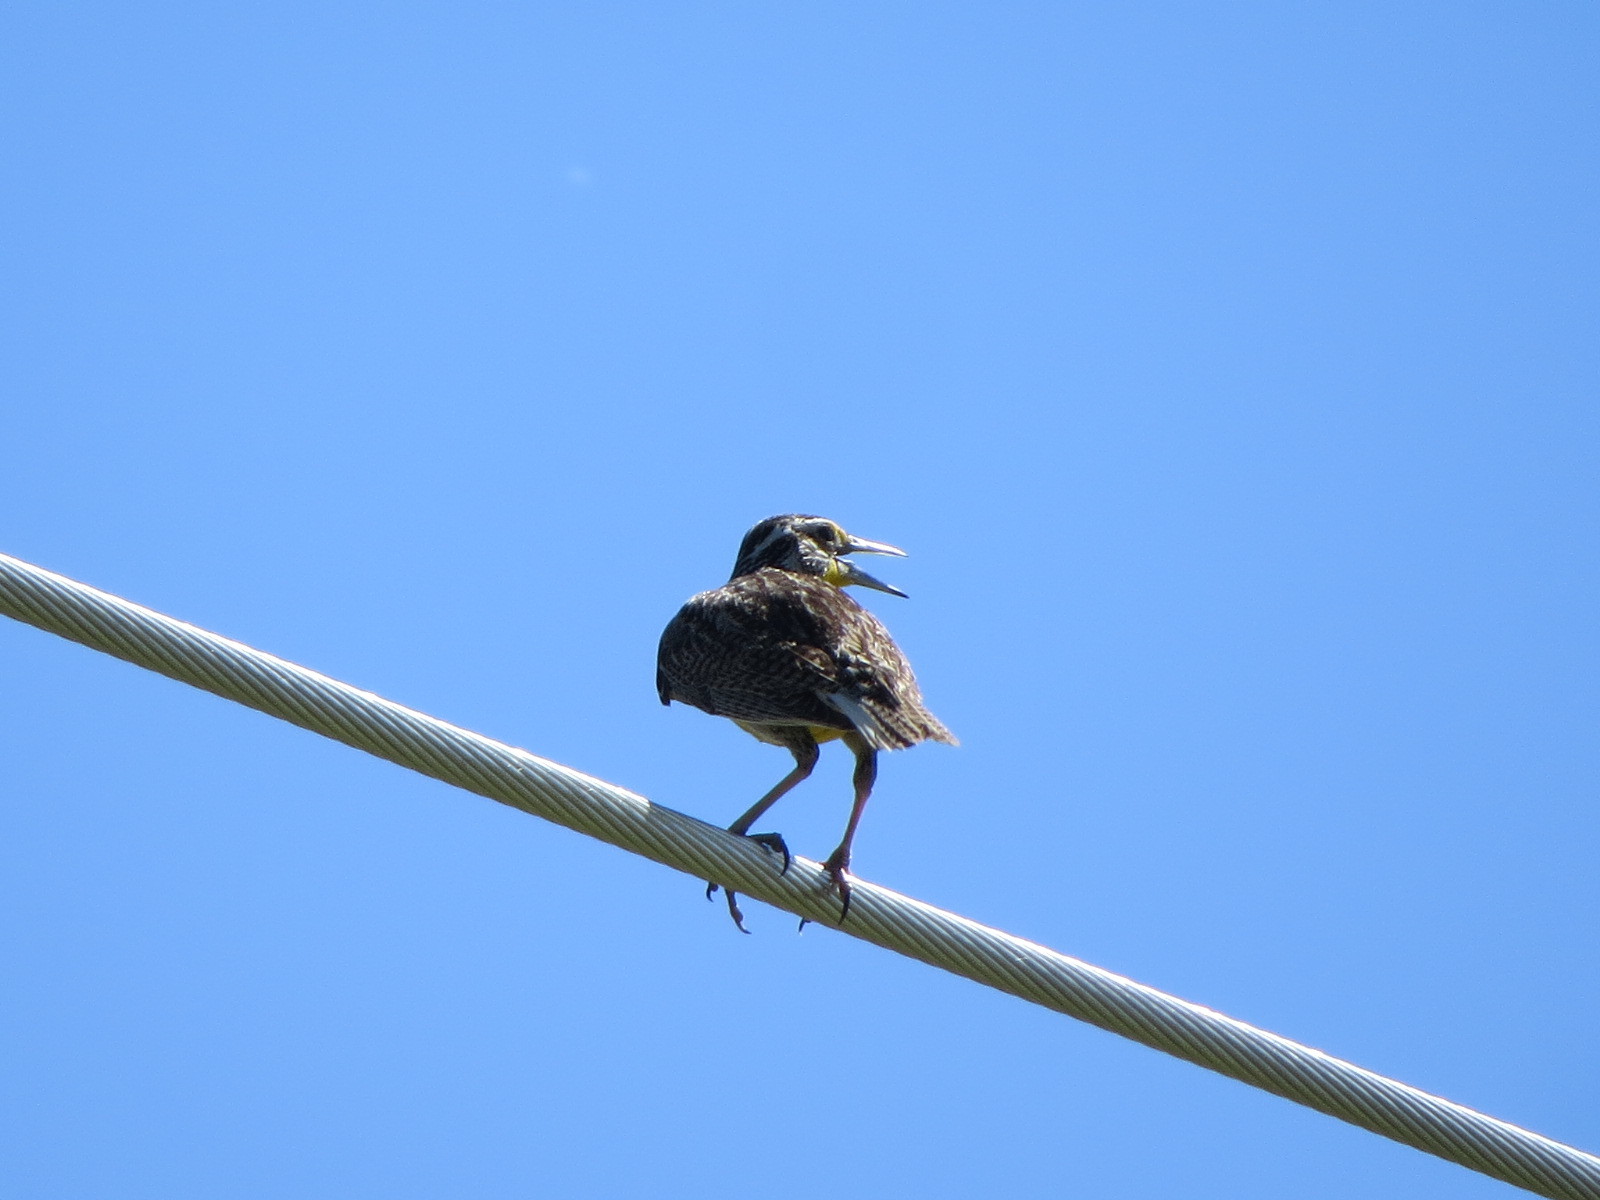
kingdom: Animalia
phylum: Chordata
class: Aves
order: Passeriformes
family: Icteridae
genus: Sturnella
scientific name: Sturnella neglecta
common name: Western meadowlark
